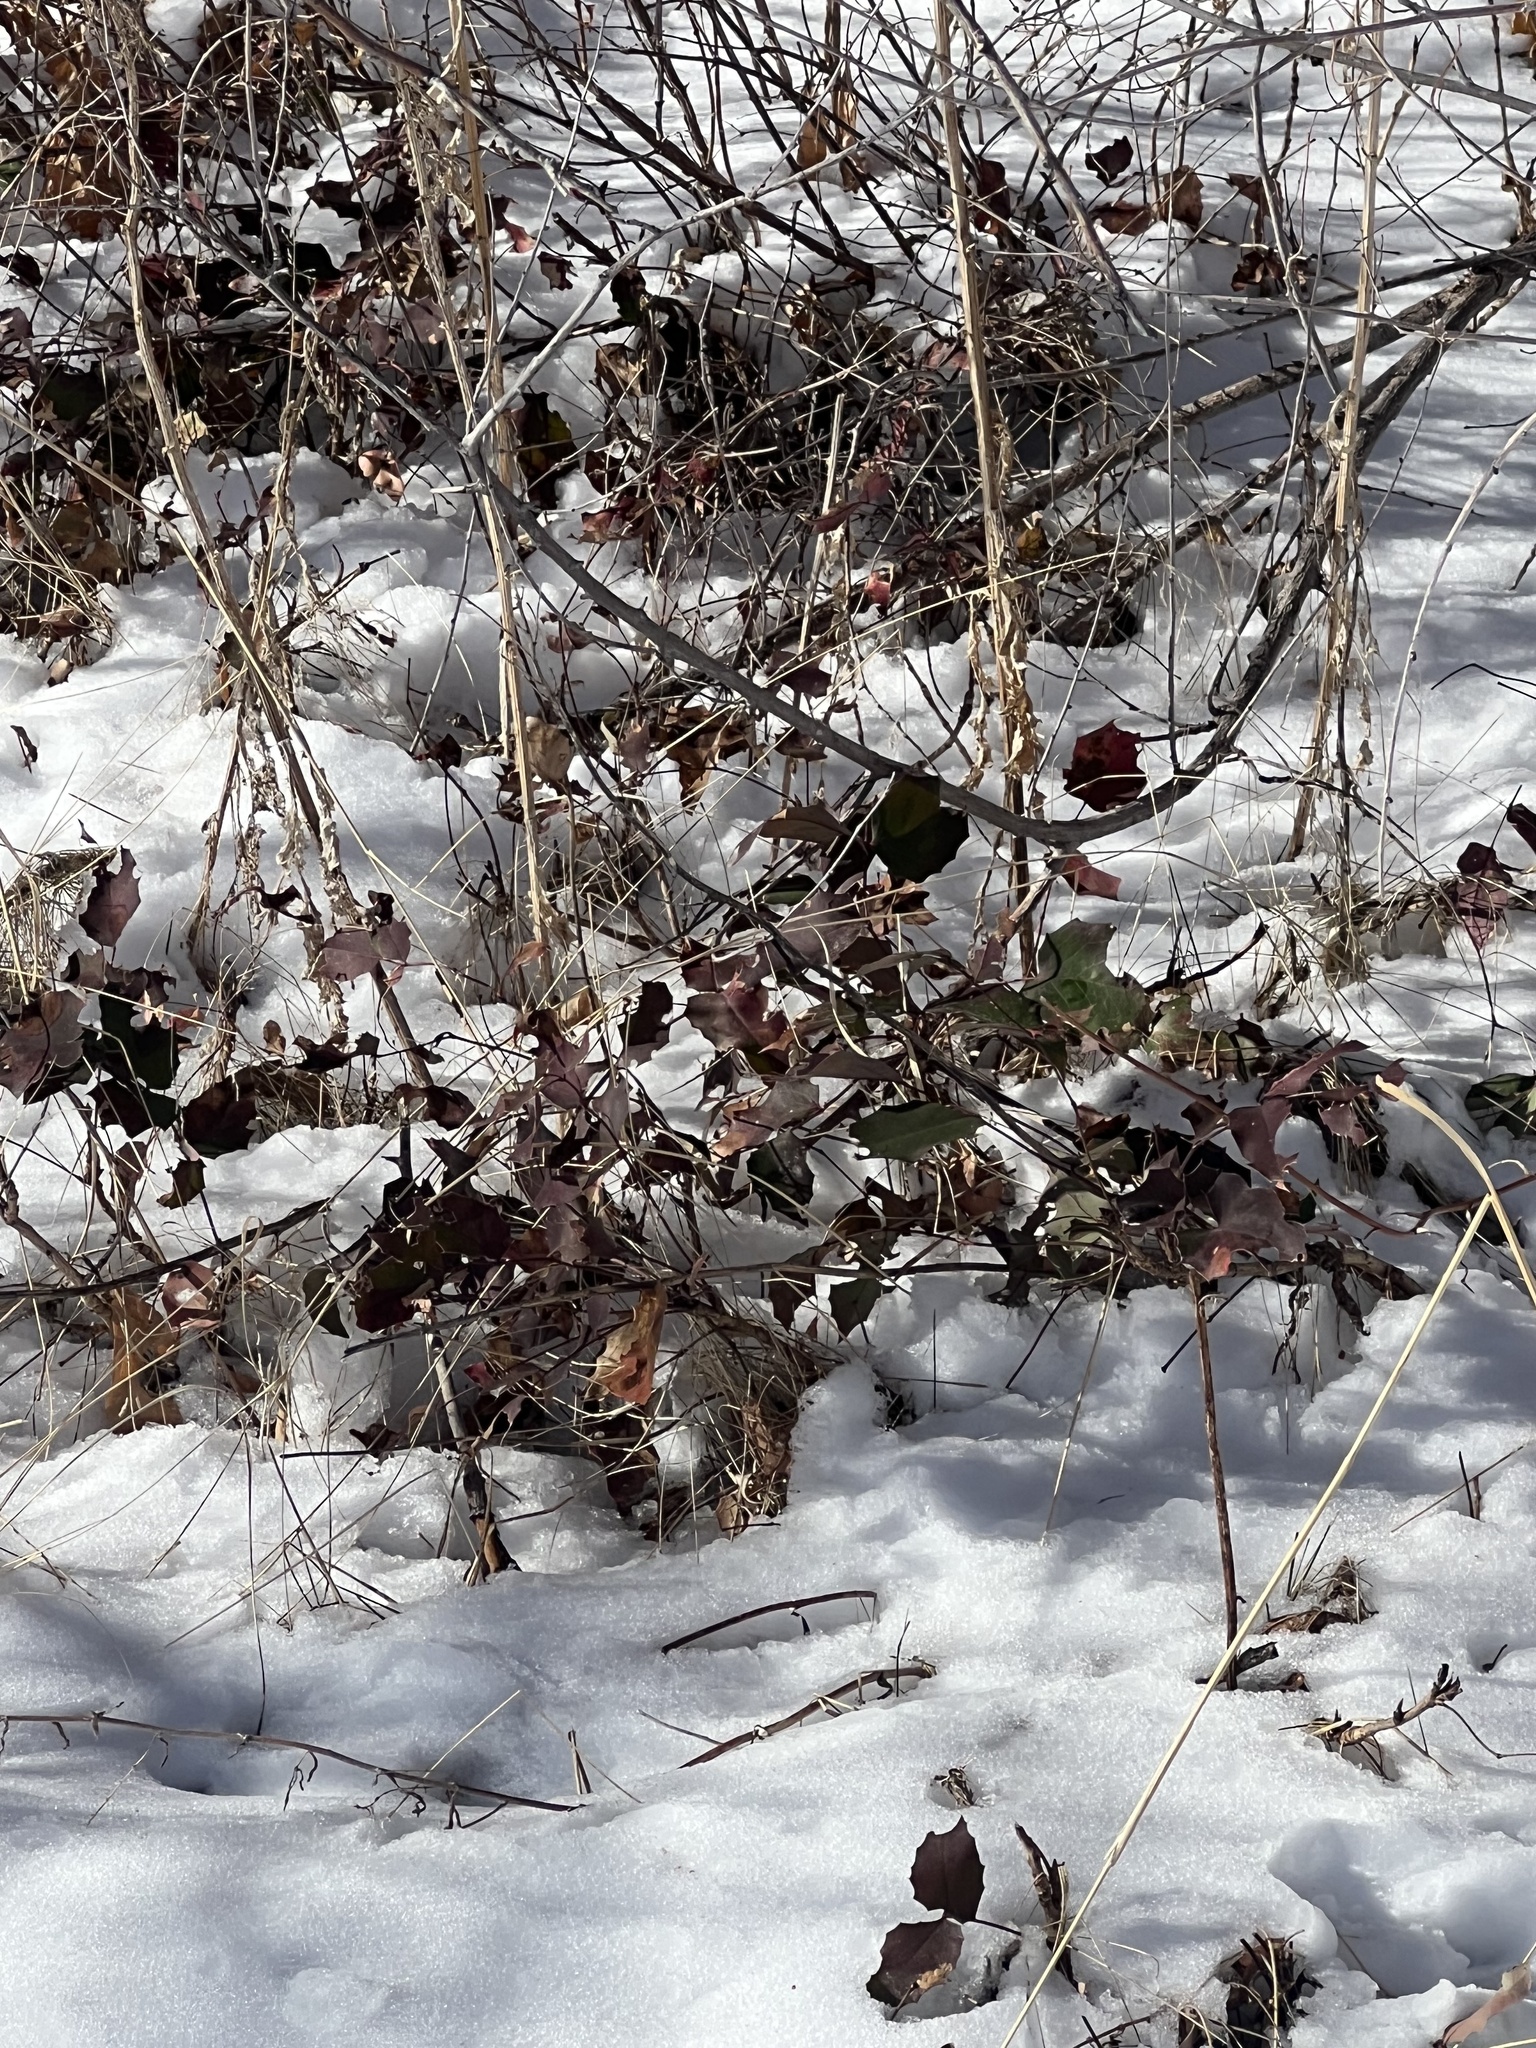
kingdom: Plantae
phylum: Tracheophyta
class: Magnoliopsida
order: Ranunculales
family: Berberidaceae
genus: Mahonia
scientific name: Mahonia repens
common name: Creeping oregon-grape
